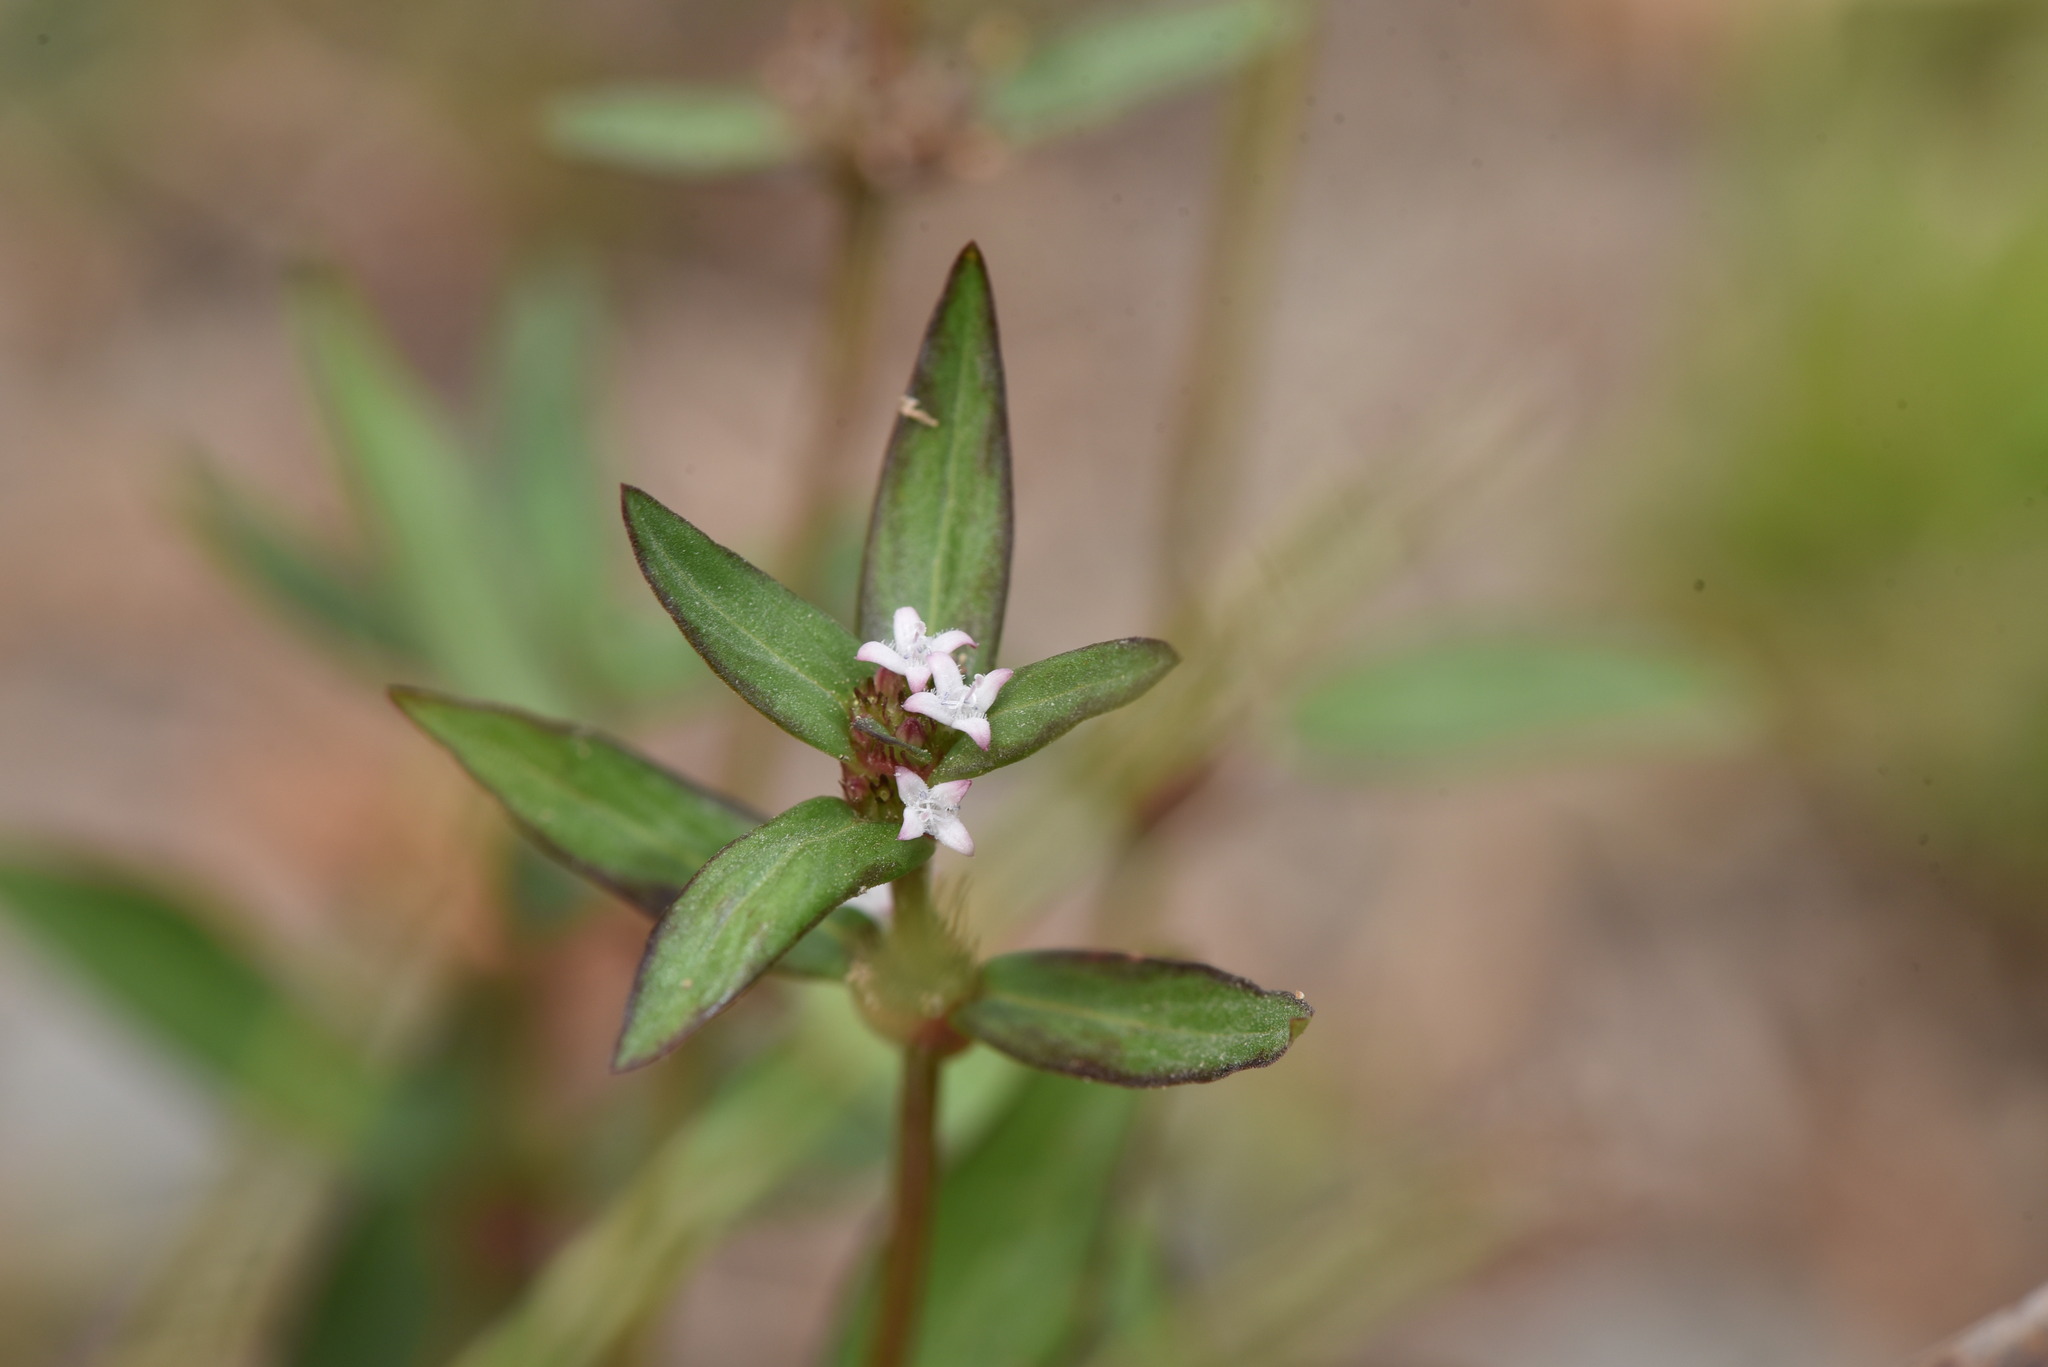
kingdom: Plantae
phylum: Tracheophyta
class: Magnoliopsida
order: Gentianales
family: Rubiaceae
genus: Spermacoce
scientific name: Spermacoce remota
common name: Woodland false buttonweed
